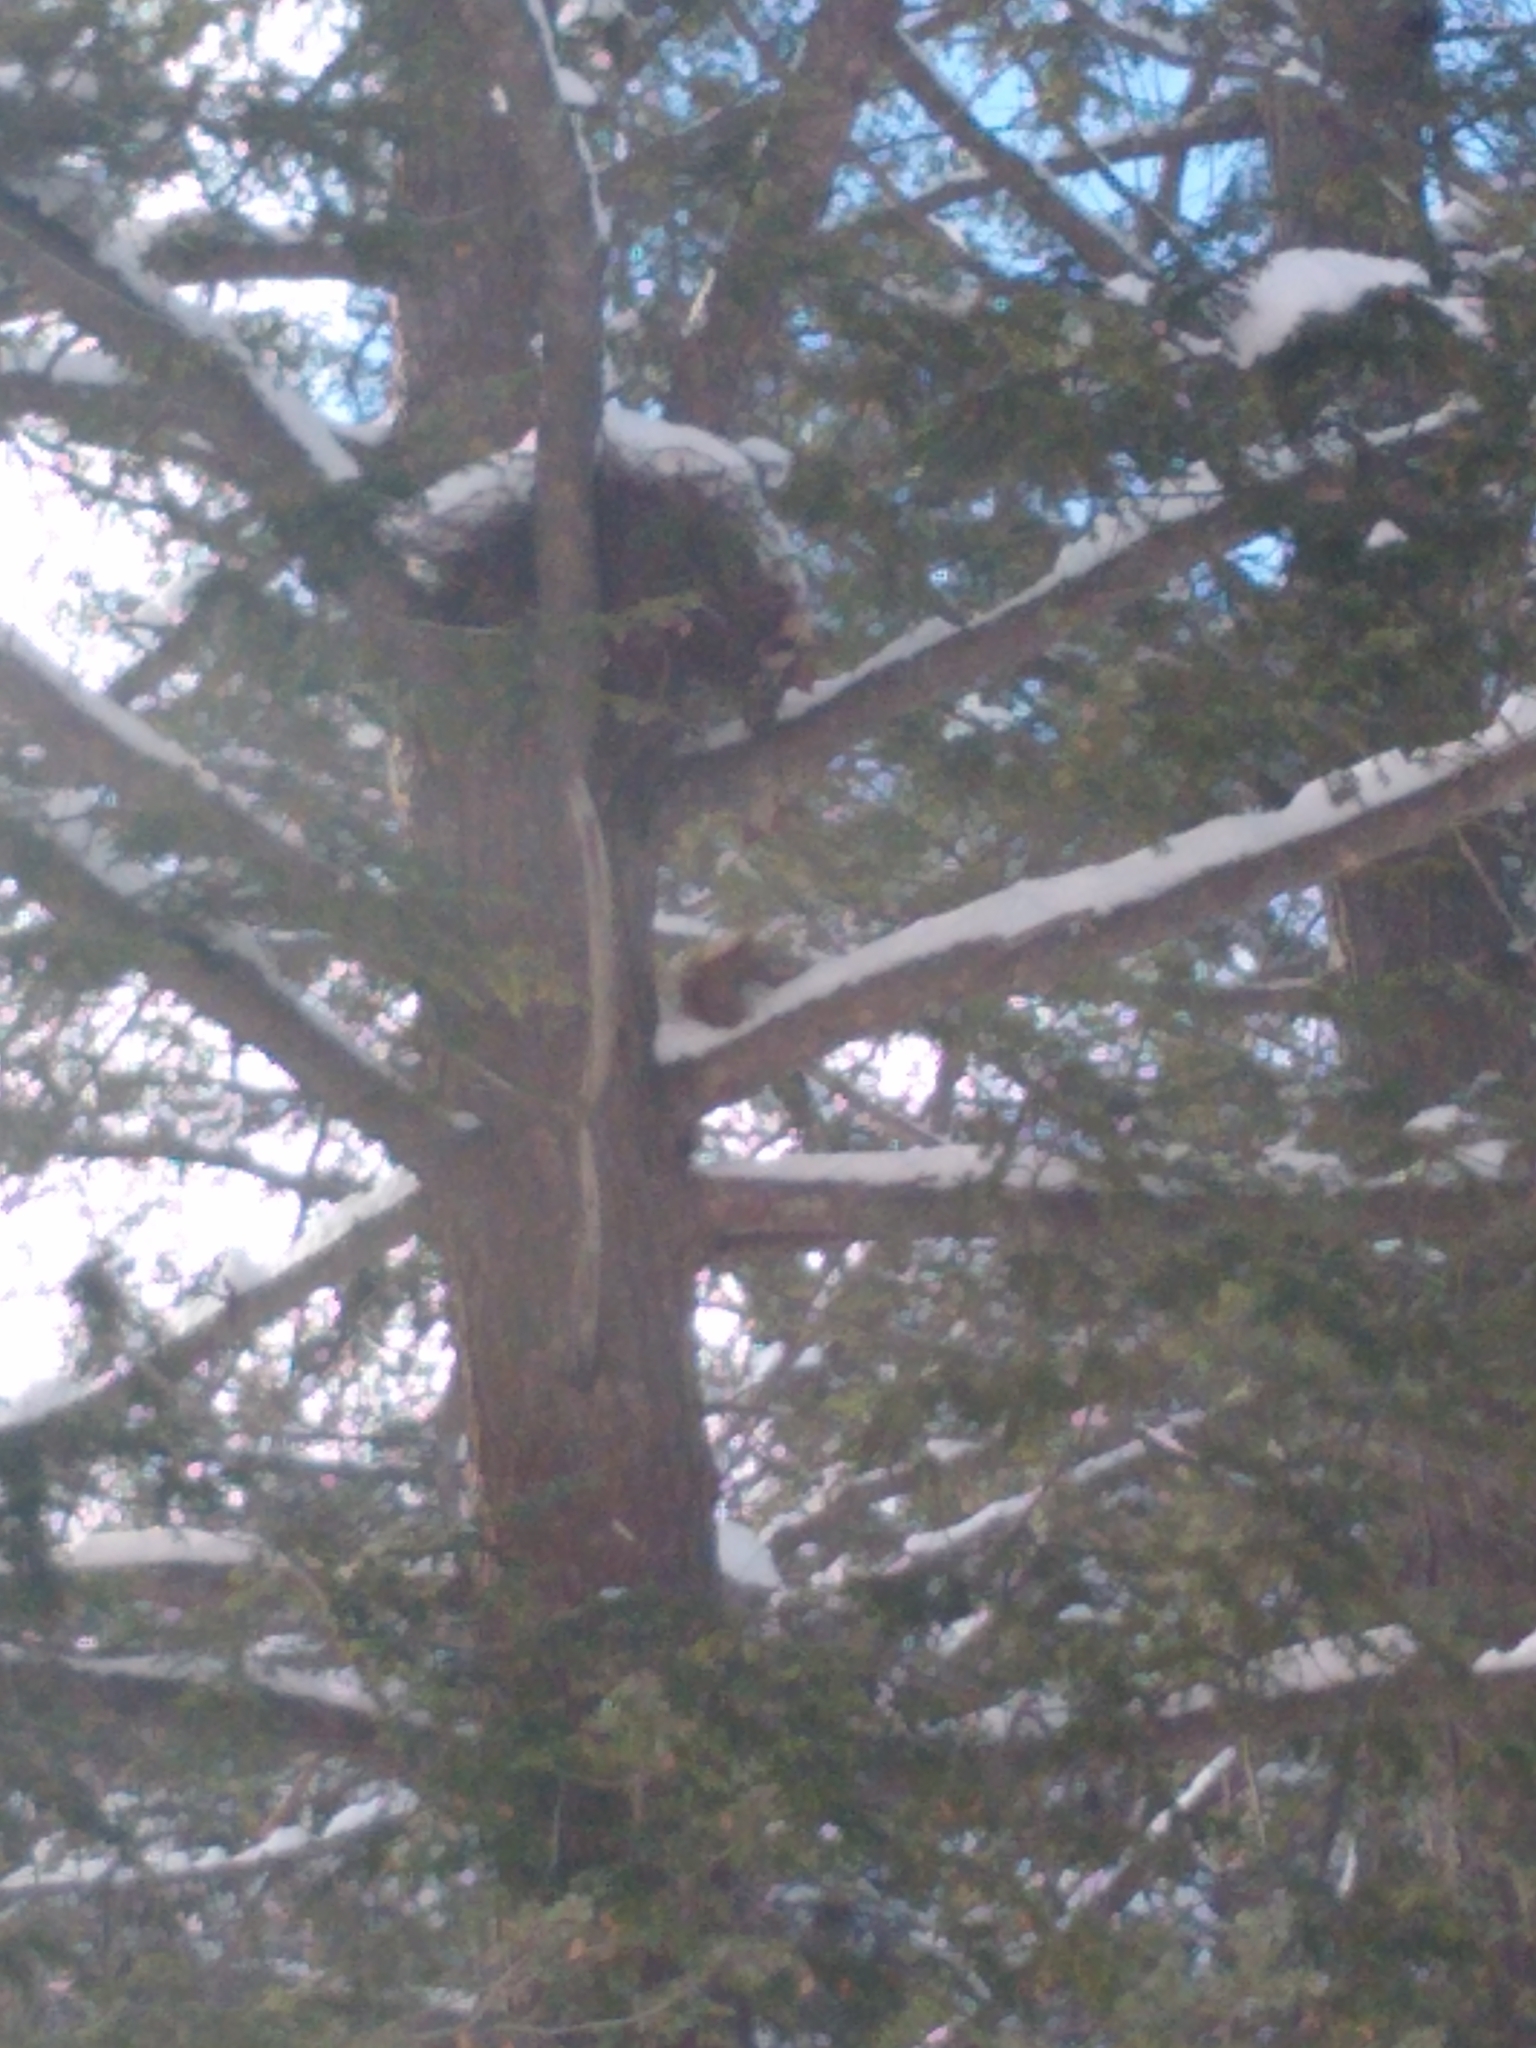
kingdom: Animalia
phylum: Chordata
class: Mammalia
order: Rodentia
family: Sciuridae
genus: Tamiasciurus
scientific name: Tamiasciurus hudsonicus
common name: Red squirrel
